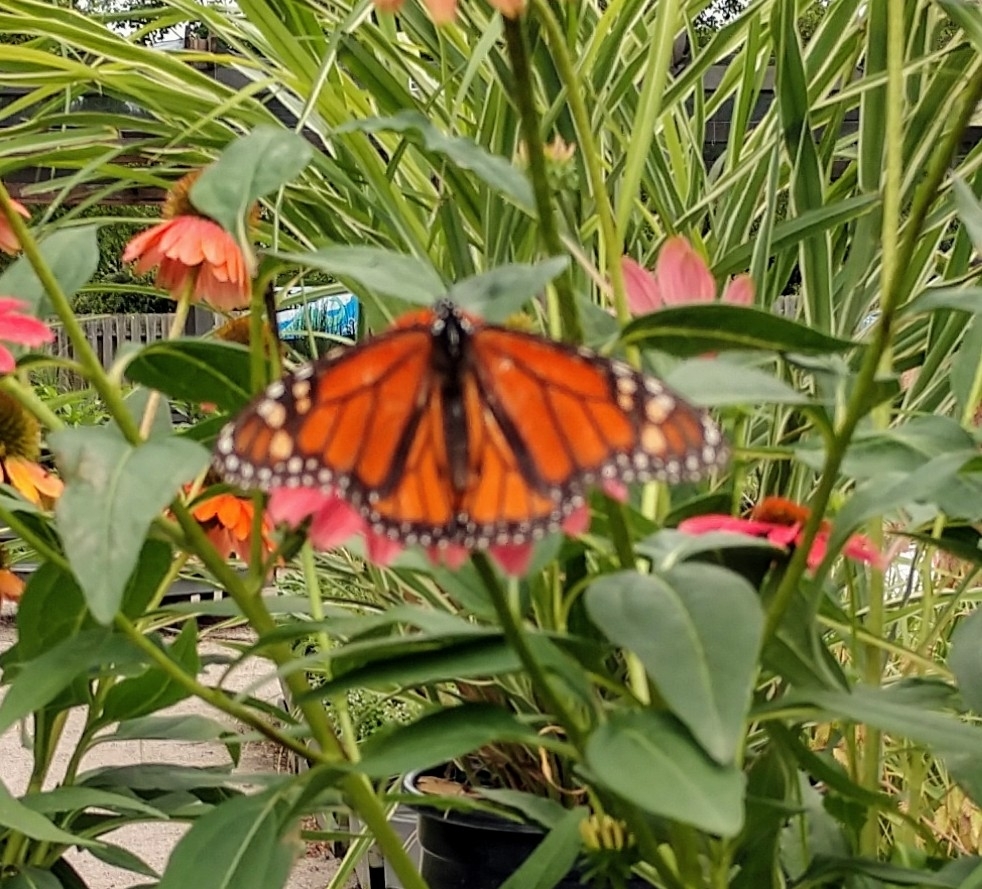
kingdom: Animalia
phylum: Arthropoda
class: Insecta
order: Lepidoptera
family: Nymphalidae
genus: Danaus
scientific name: Danaus plexippus
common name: Monarch
